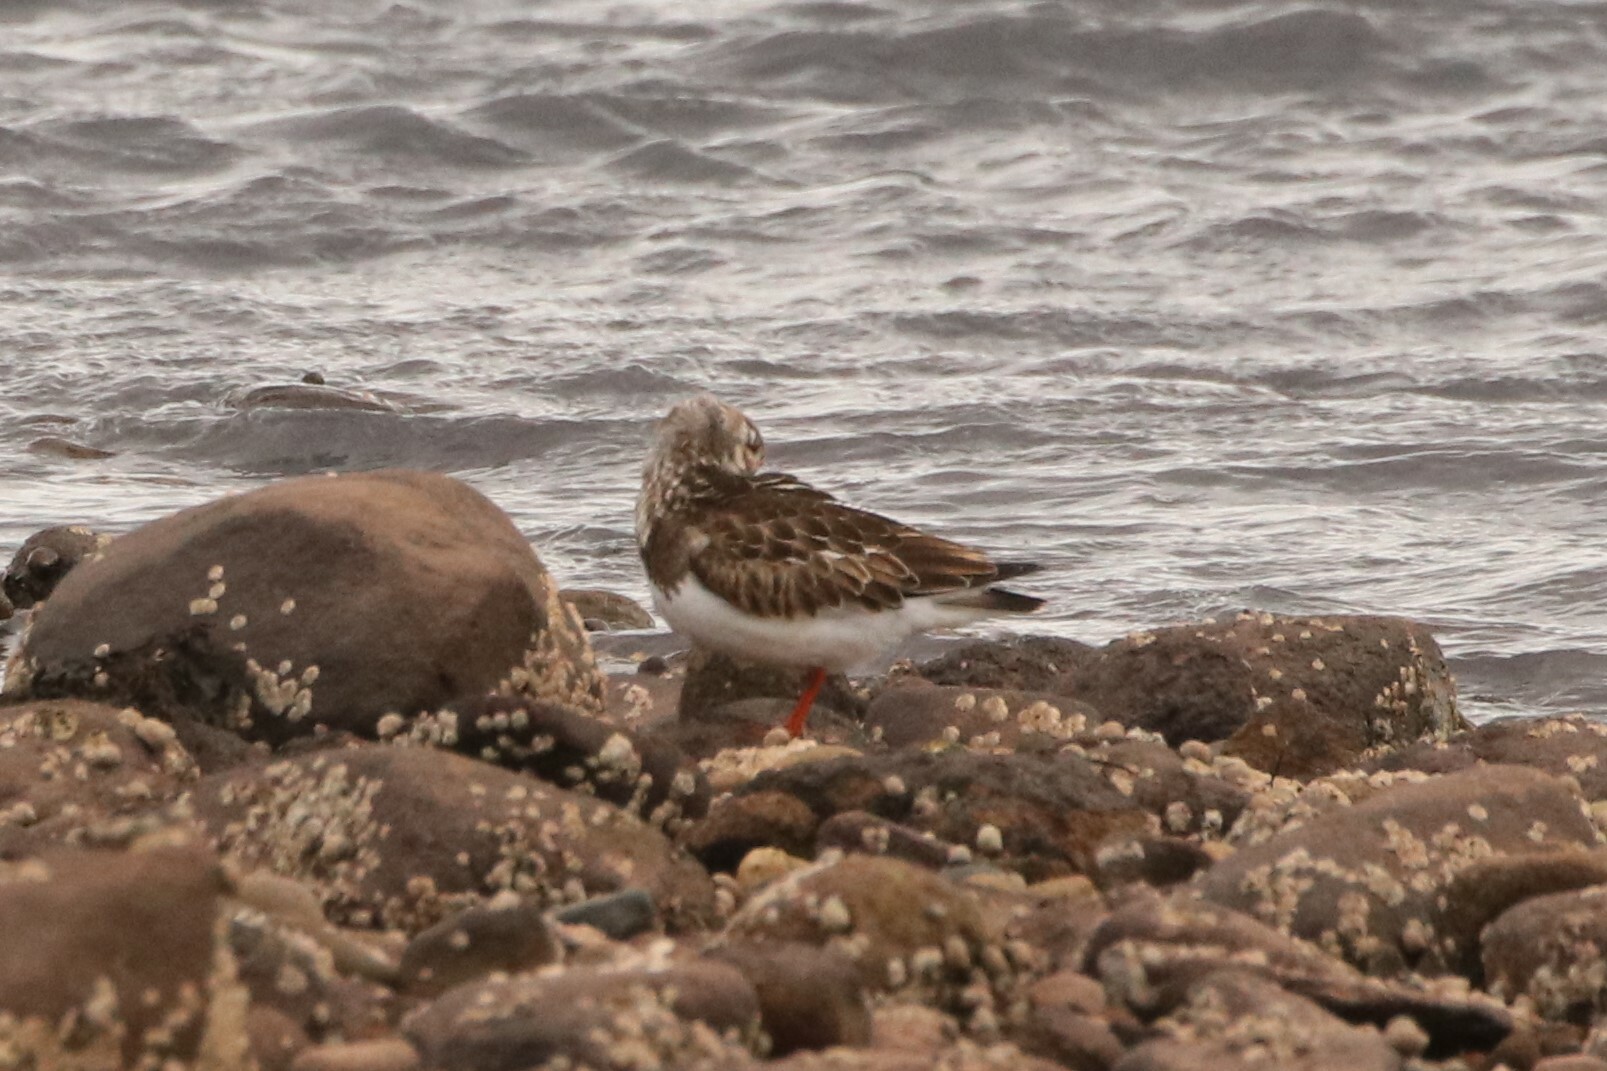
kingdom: Animalia
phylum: Chordata
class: Aves
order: Charadriiformes
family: Scolopacidae
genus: Arenaria
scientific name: Arenaria interpres
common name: Ruddy turnstone
